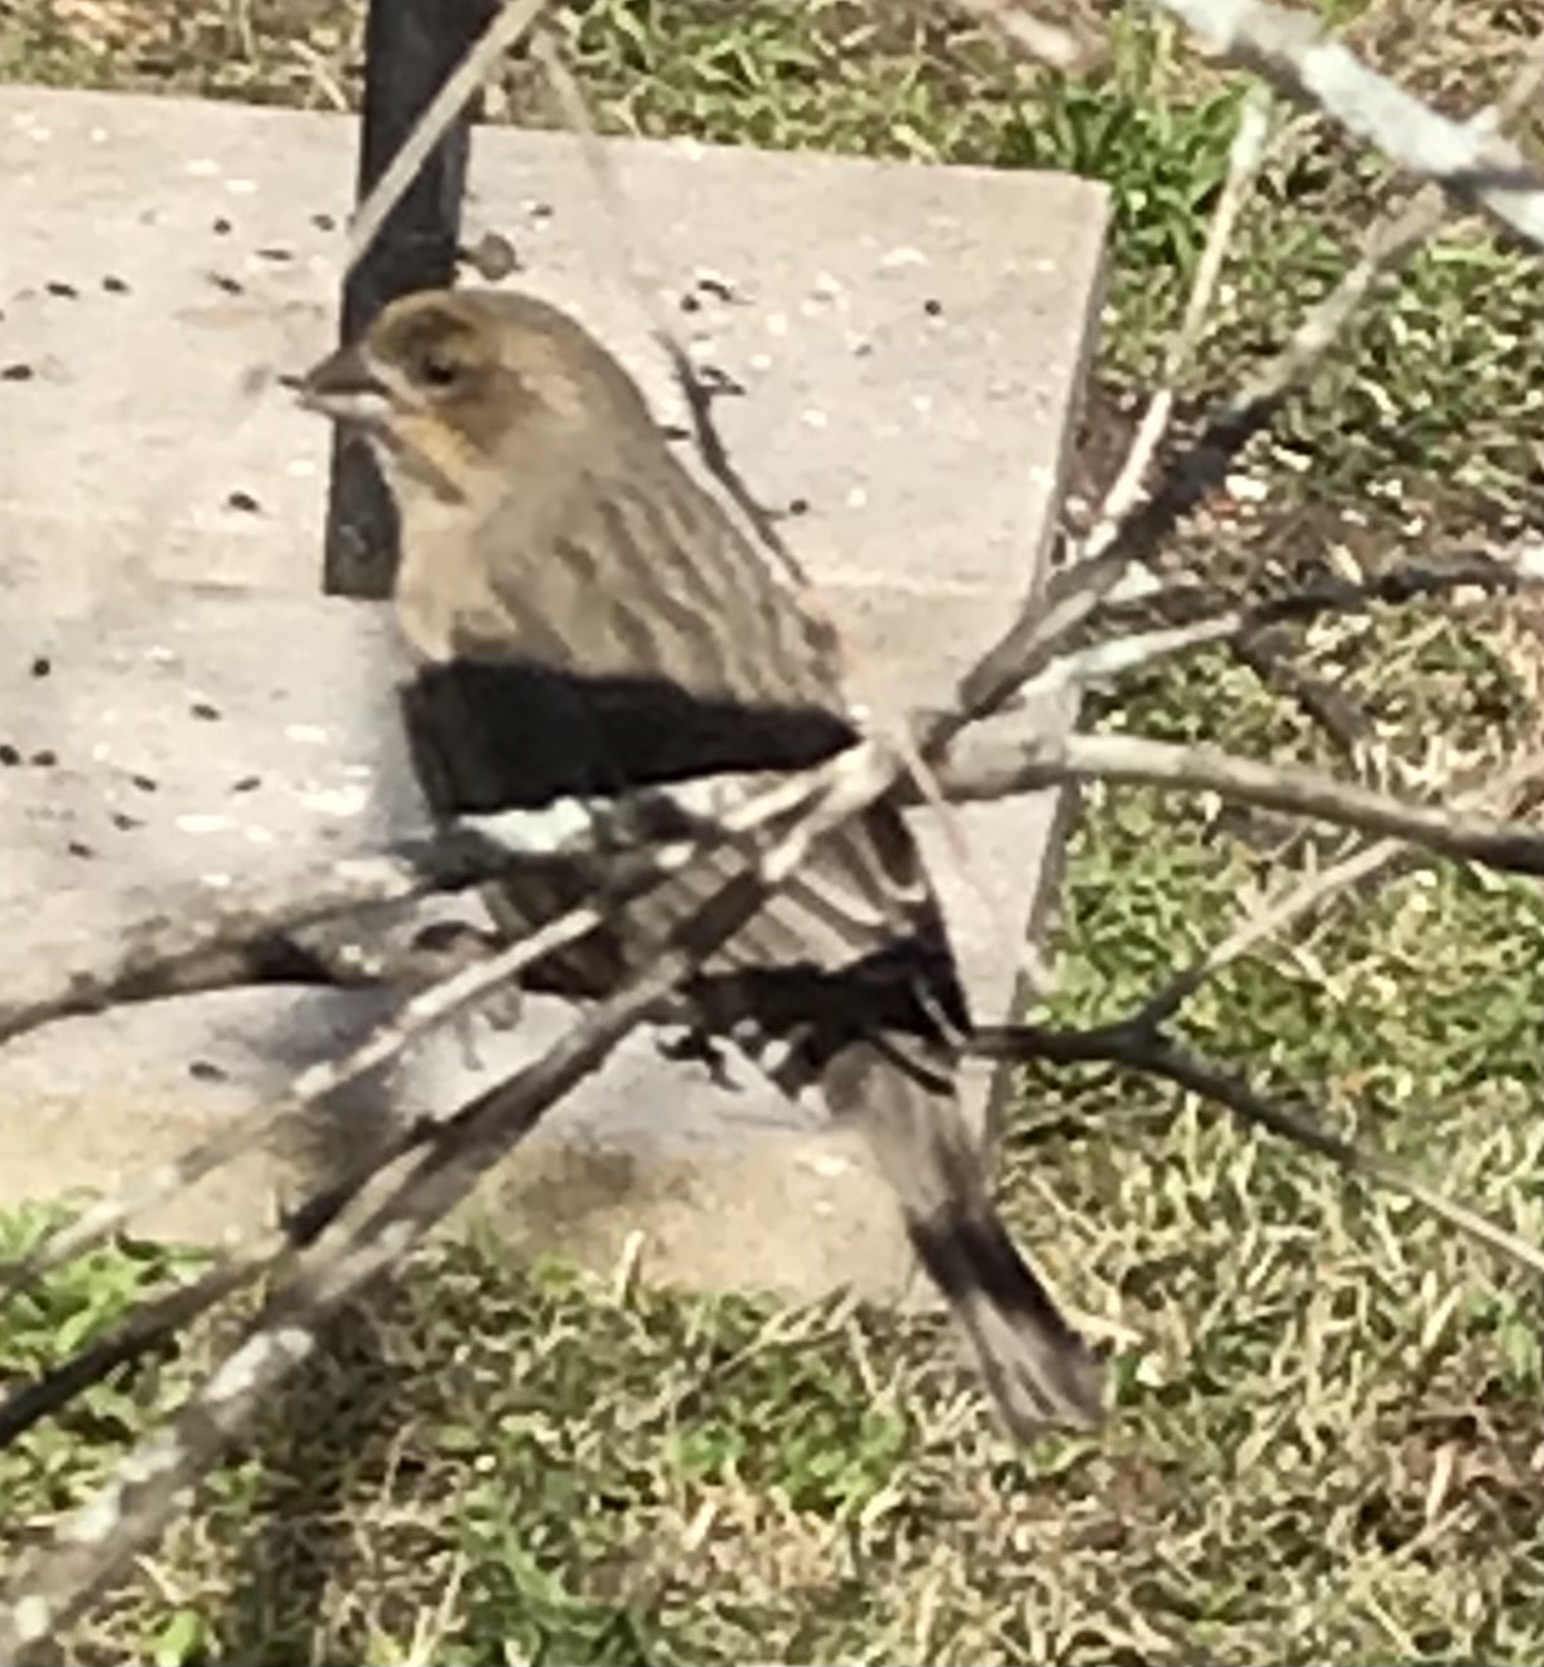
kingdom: Animalia
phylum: Chordata
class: Aves
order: Passeriformes
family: Fringillidae
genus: Haemorhous
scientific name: Haemorhous mexicanus
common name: House finch
